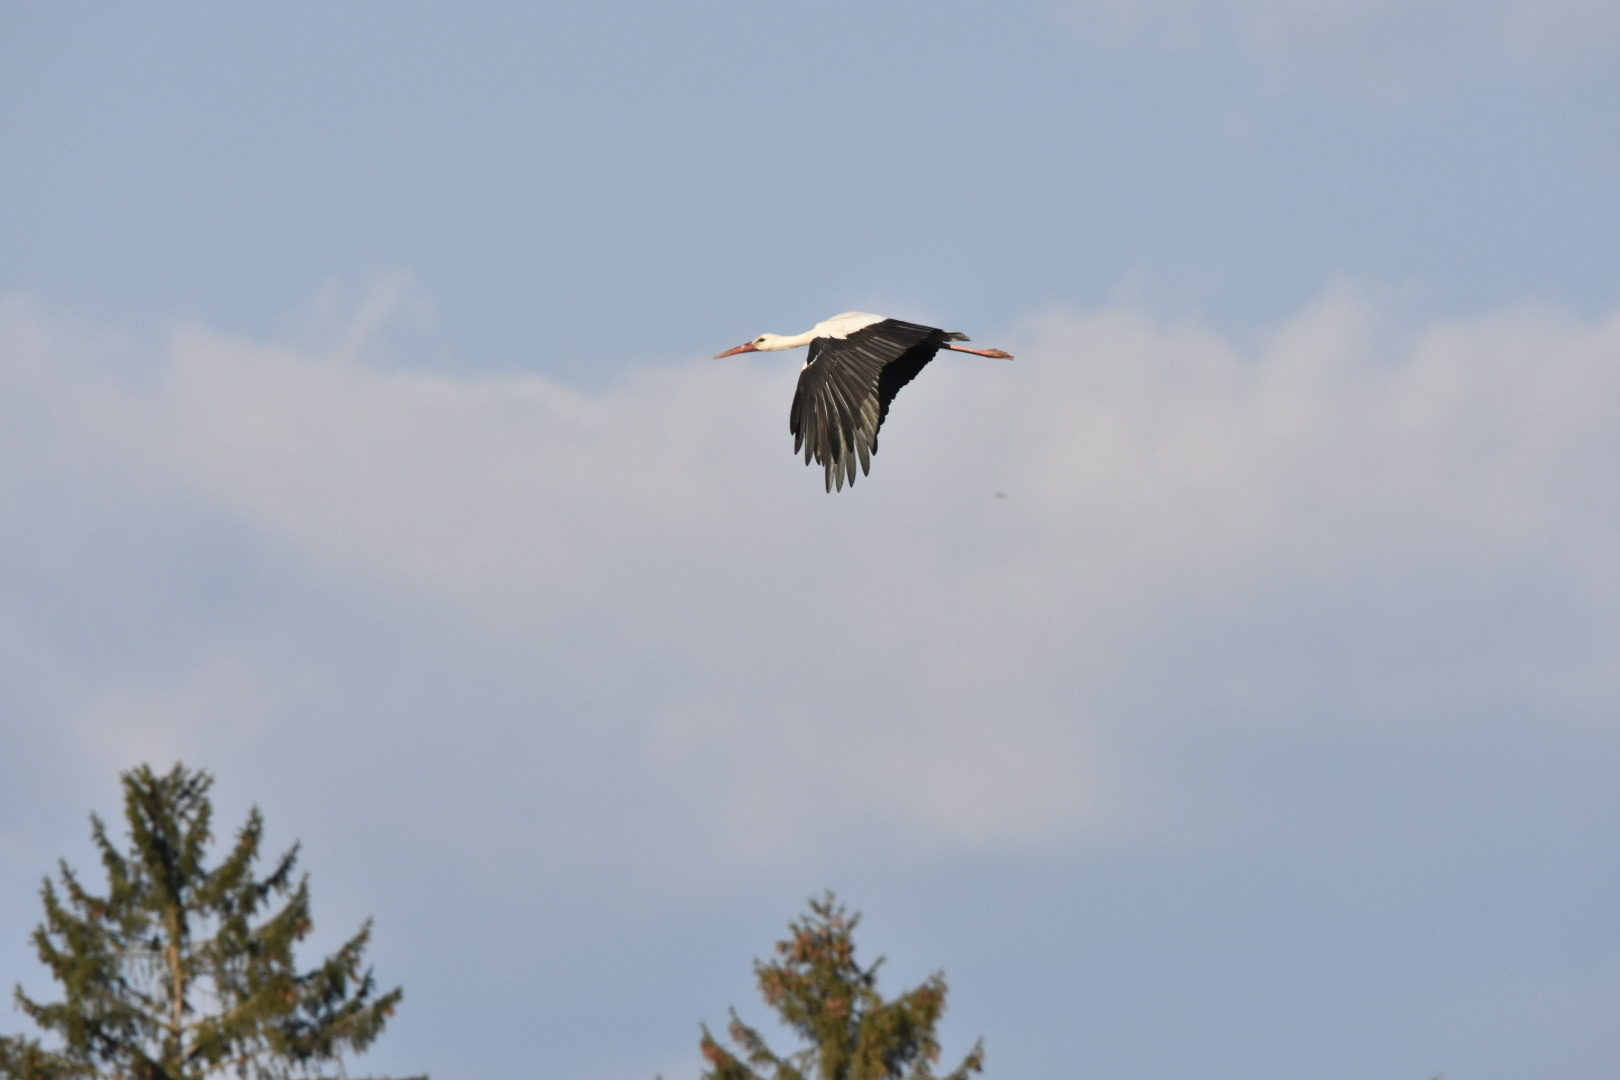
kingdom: Animalia
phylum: Chordata
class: Aves
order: Ciconiiformes
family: Ciconiidae
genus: Ciconia
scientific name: Ciconia ciconia
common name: White stork
